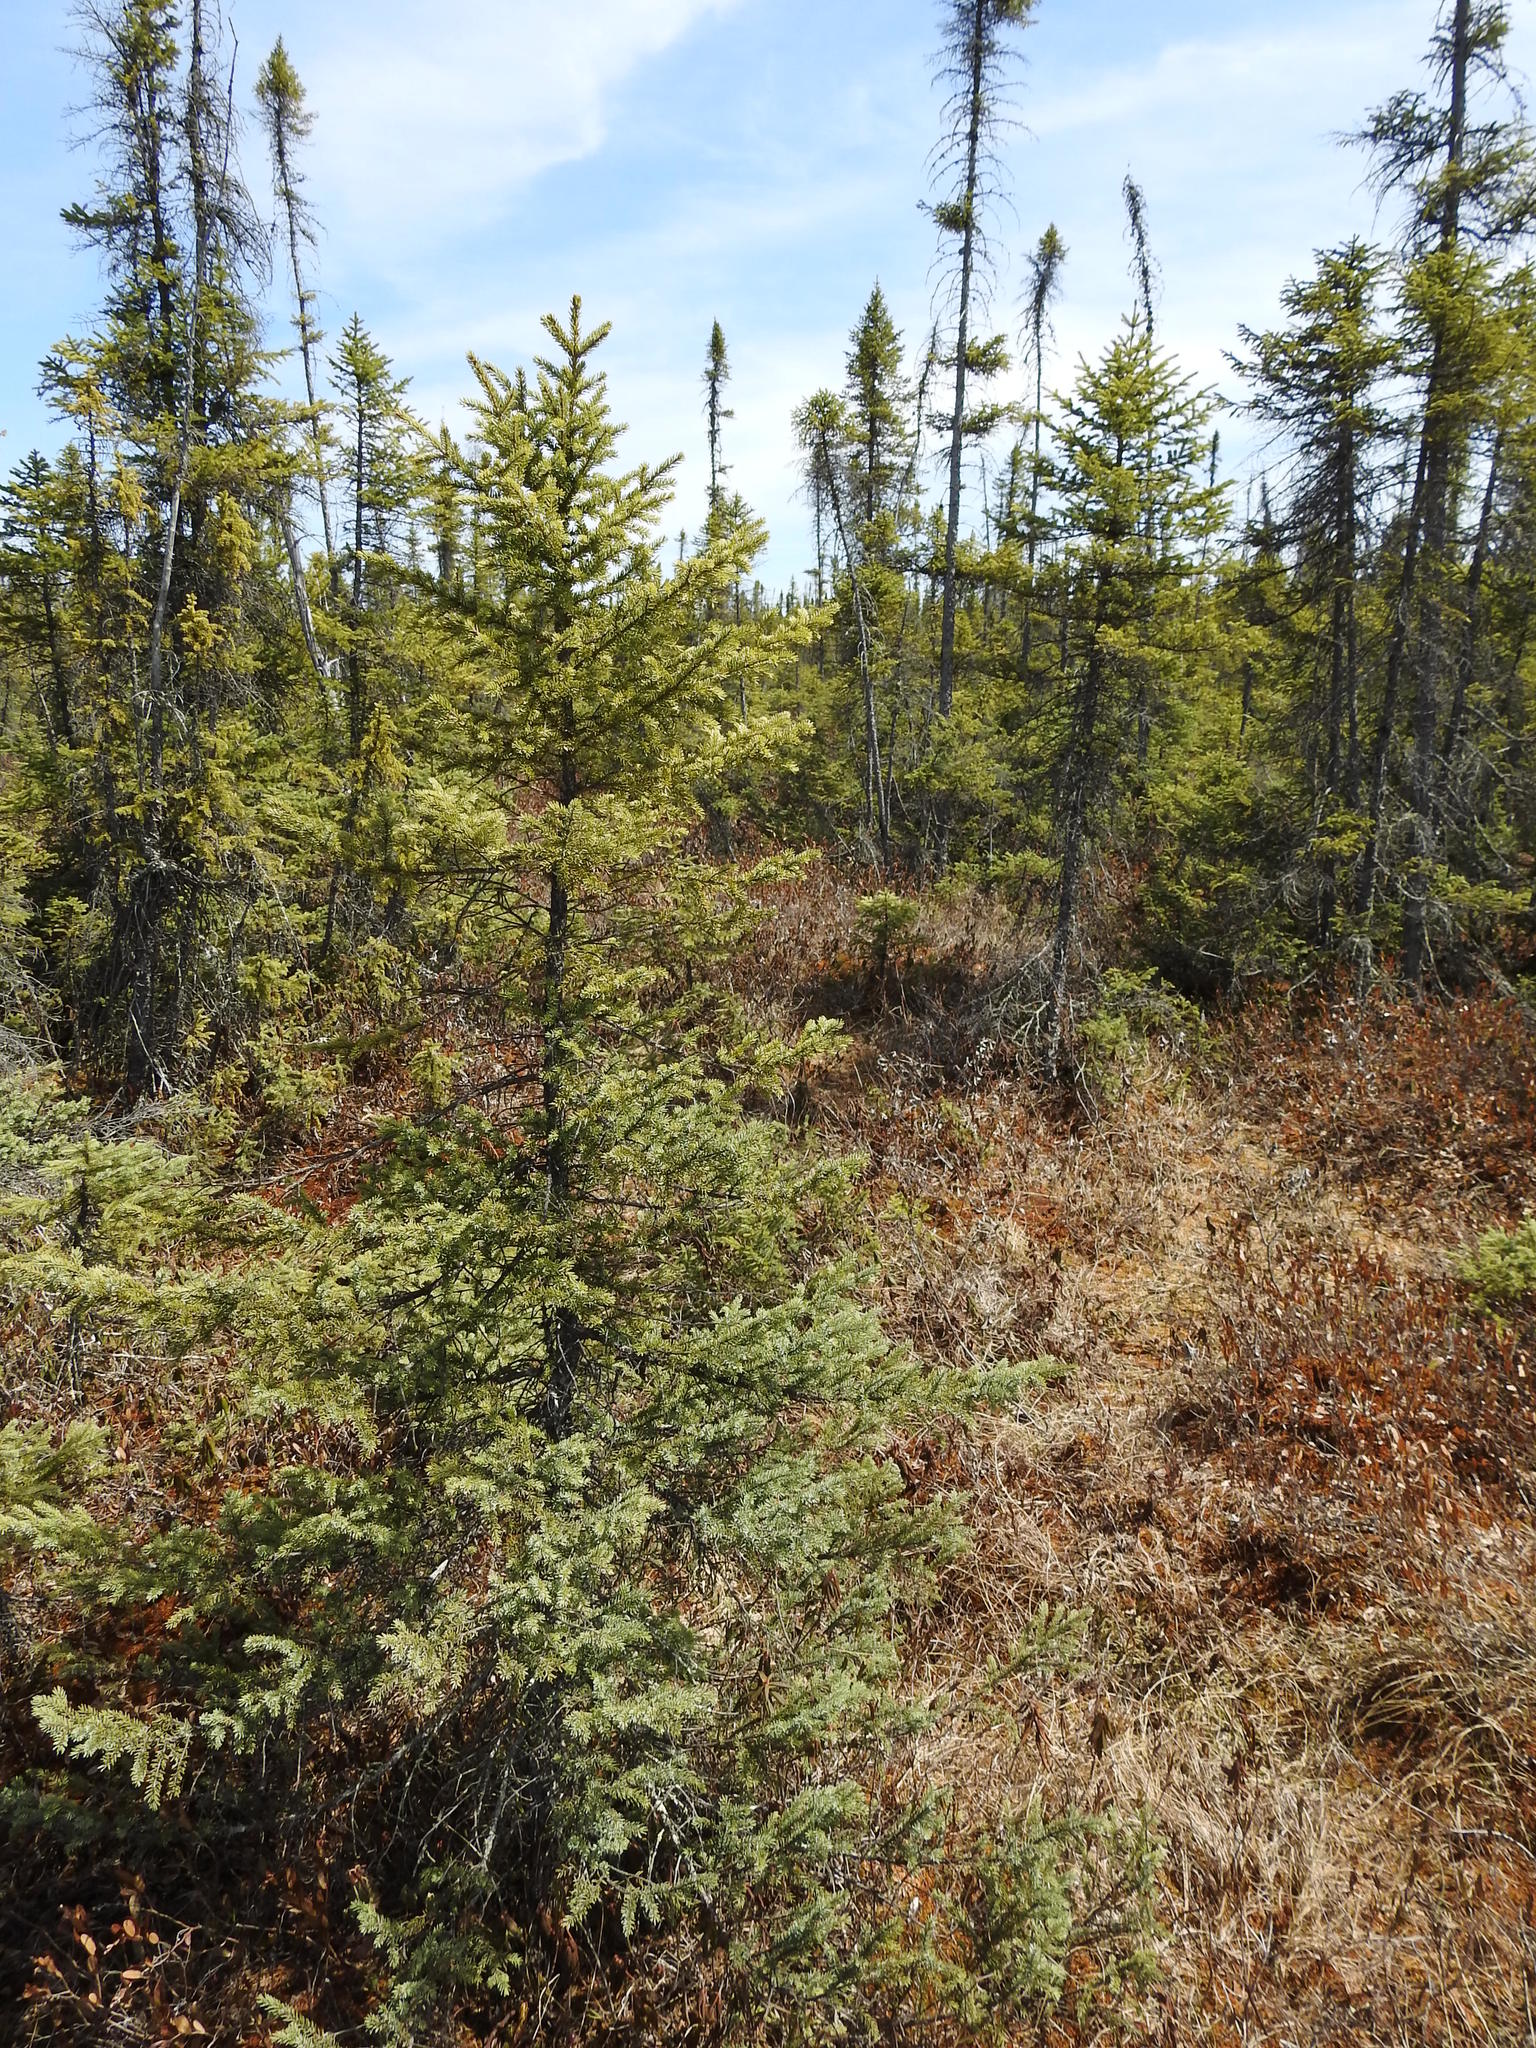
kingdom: Plantae
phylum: Tracheophyta
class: Pinopsida
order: Pinales
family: Pinaceae
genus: Picea
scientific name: Picea mariana
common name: Black spruce
